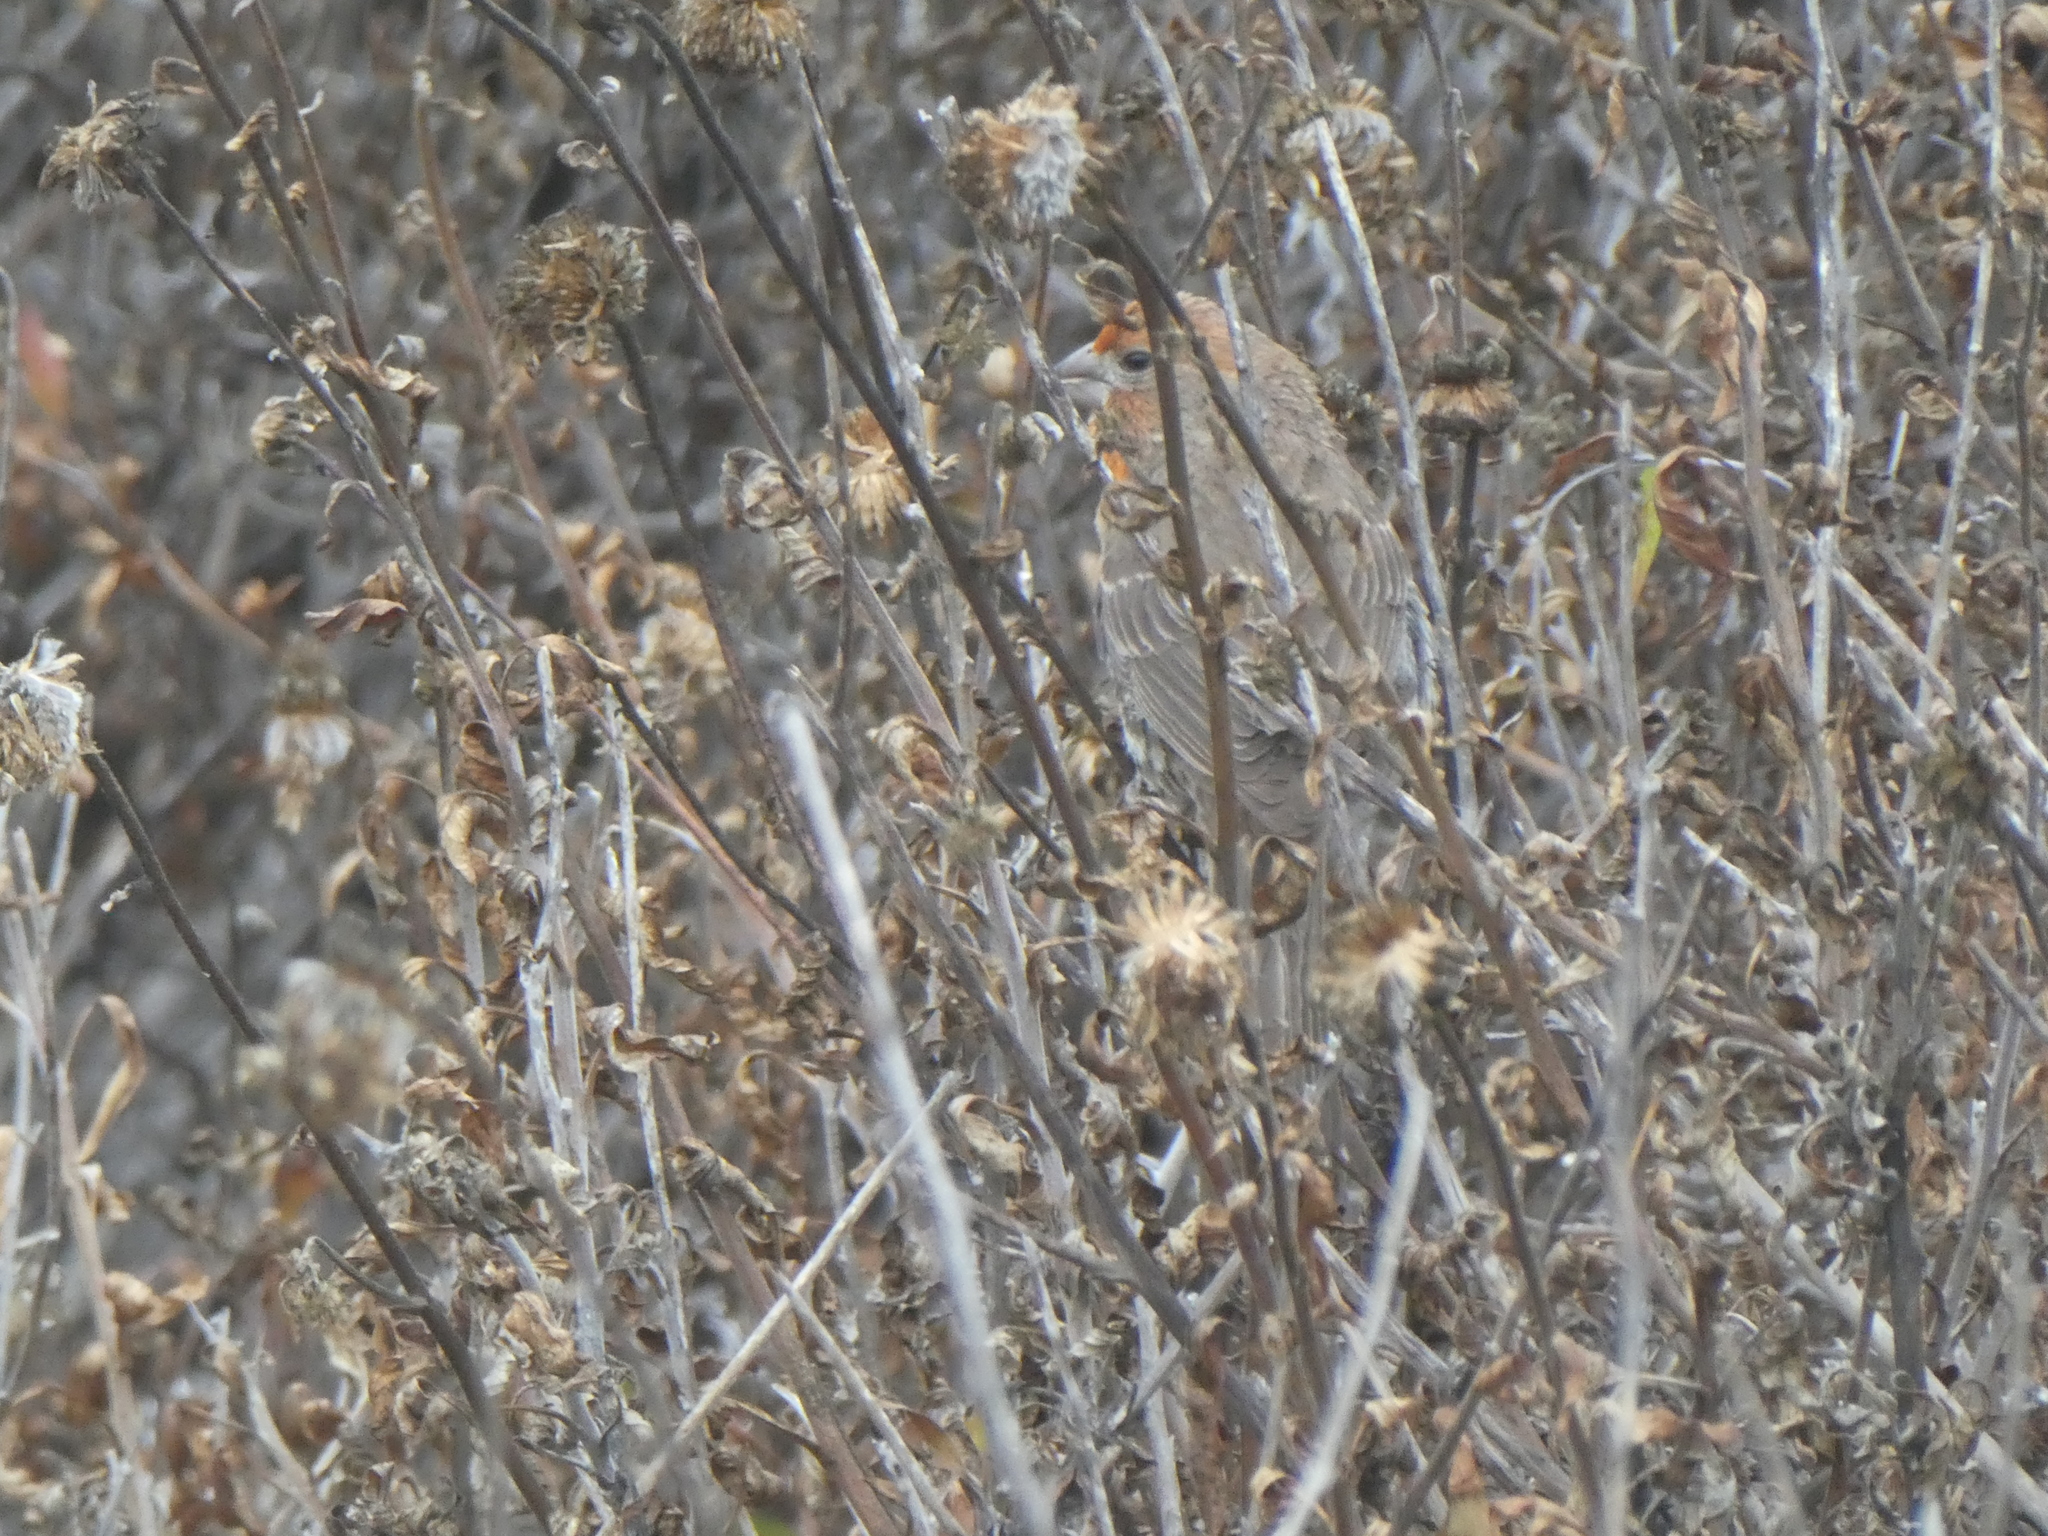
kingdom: Animalia
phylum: Chordata
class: Aves
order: Passeriformes
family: Fringillidae
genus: Haemorhous
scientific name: Haemorhous mexicanus
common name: House finch
